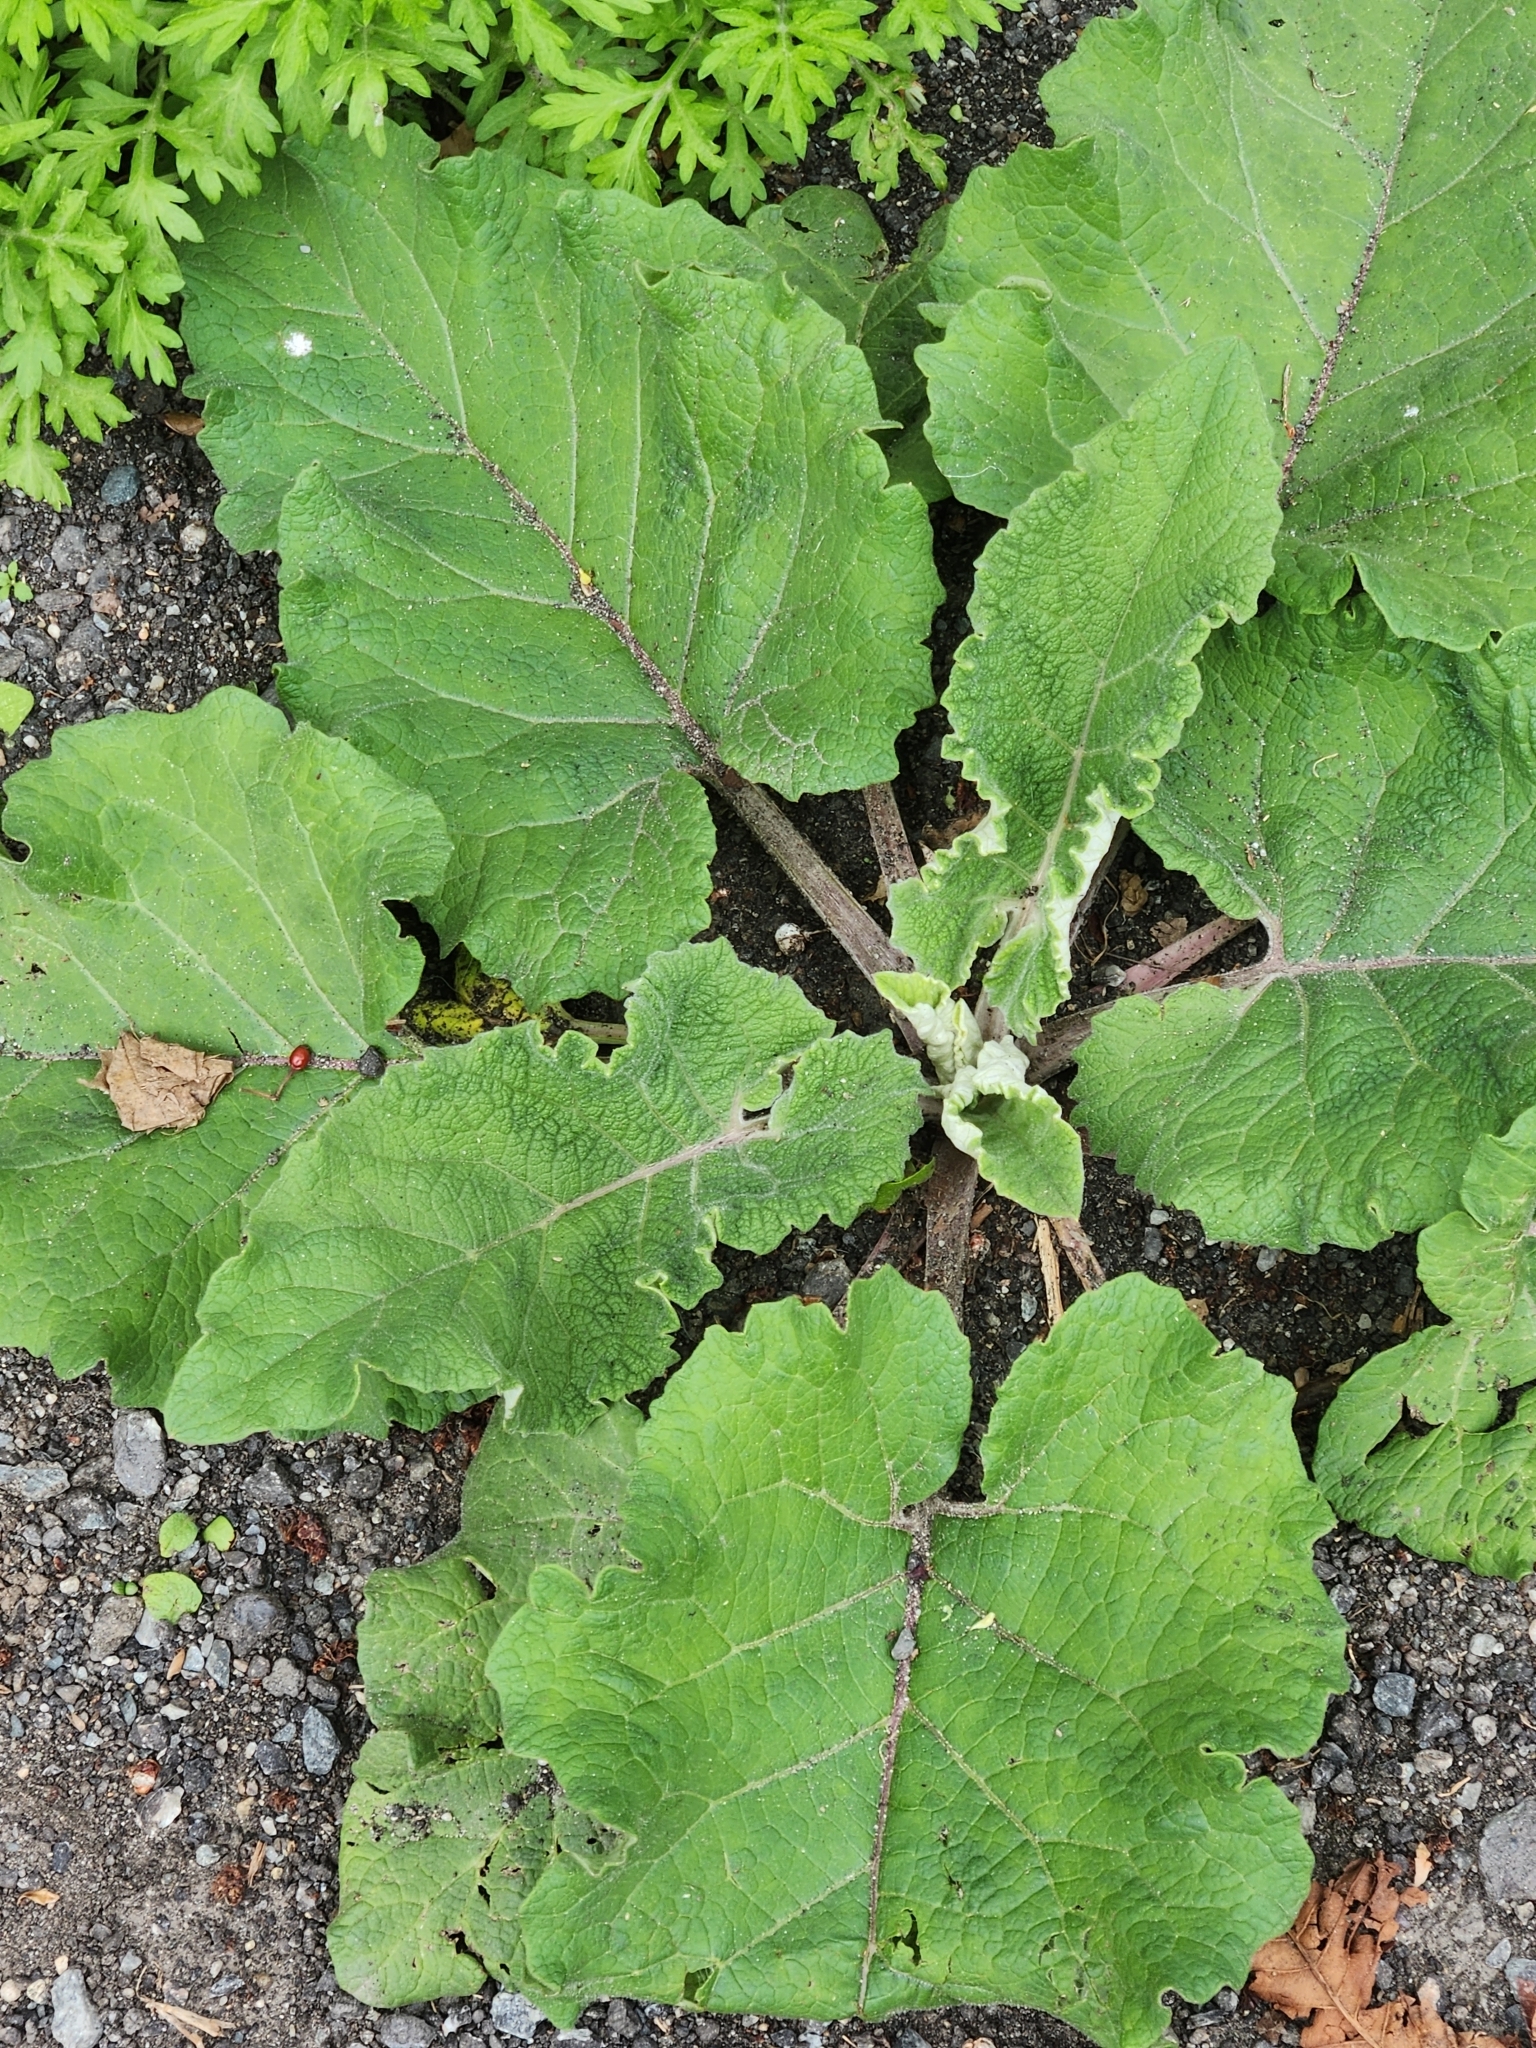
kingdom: Plantae
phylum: Tracheophyta
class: Magnoliopsida
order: Asterales
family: Asteraceae
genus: Arctium
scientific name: Arctium
